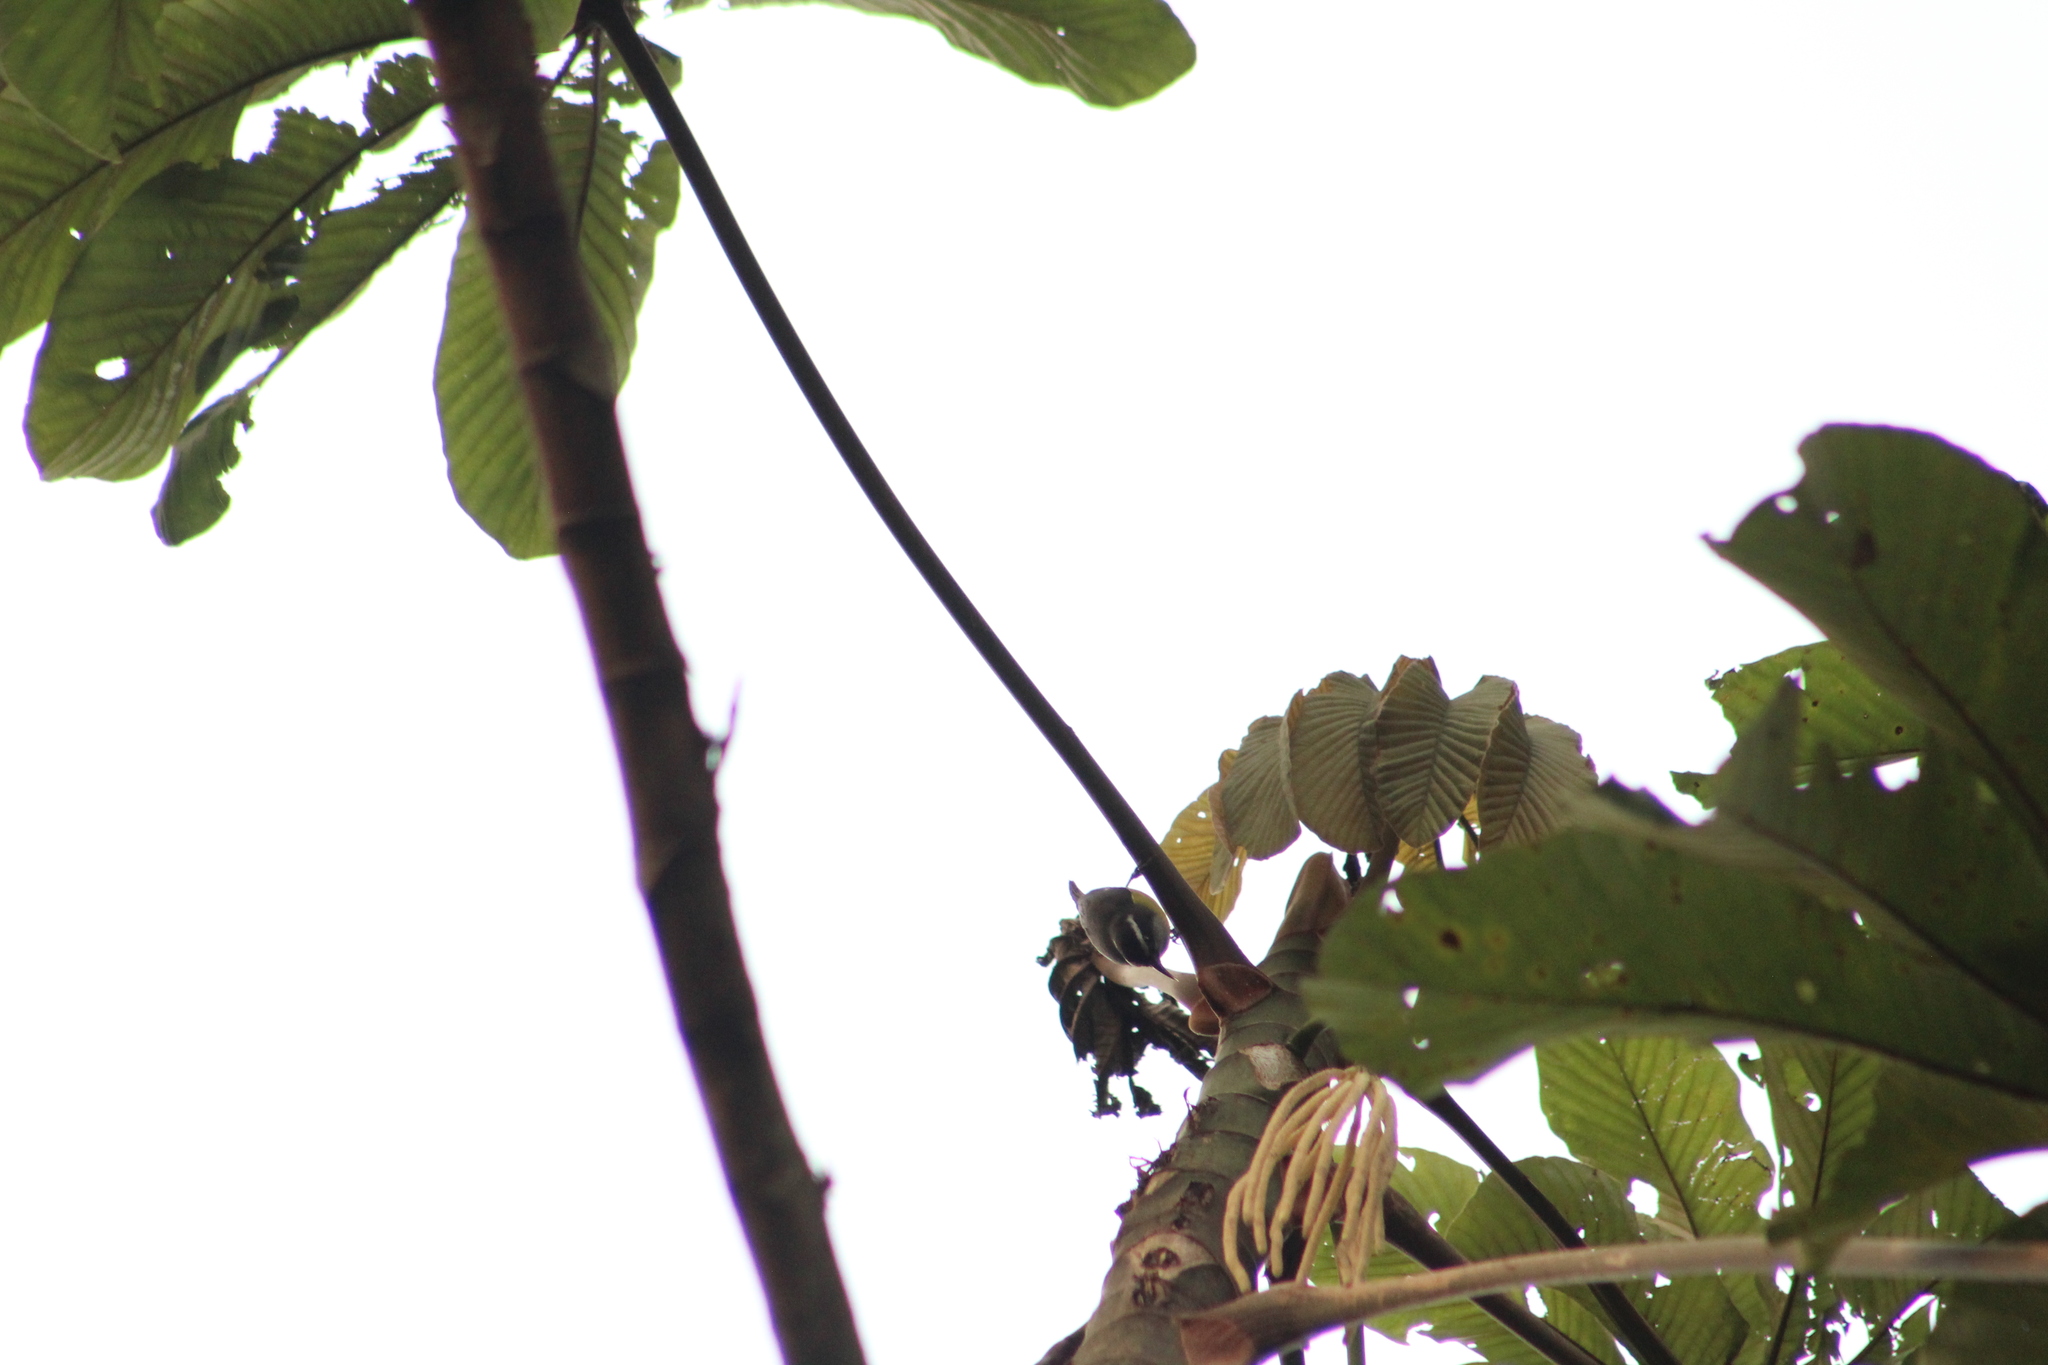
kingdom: Animalia
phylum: Chordata
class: Aves
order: Passeriformes
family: Thraupidae
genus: Coereba
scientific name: Coereba flaveola
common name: Bananaquit
